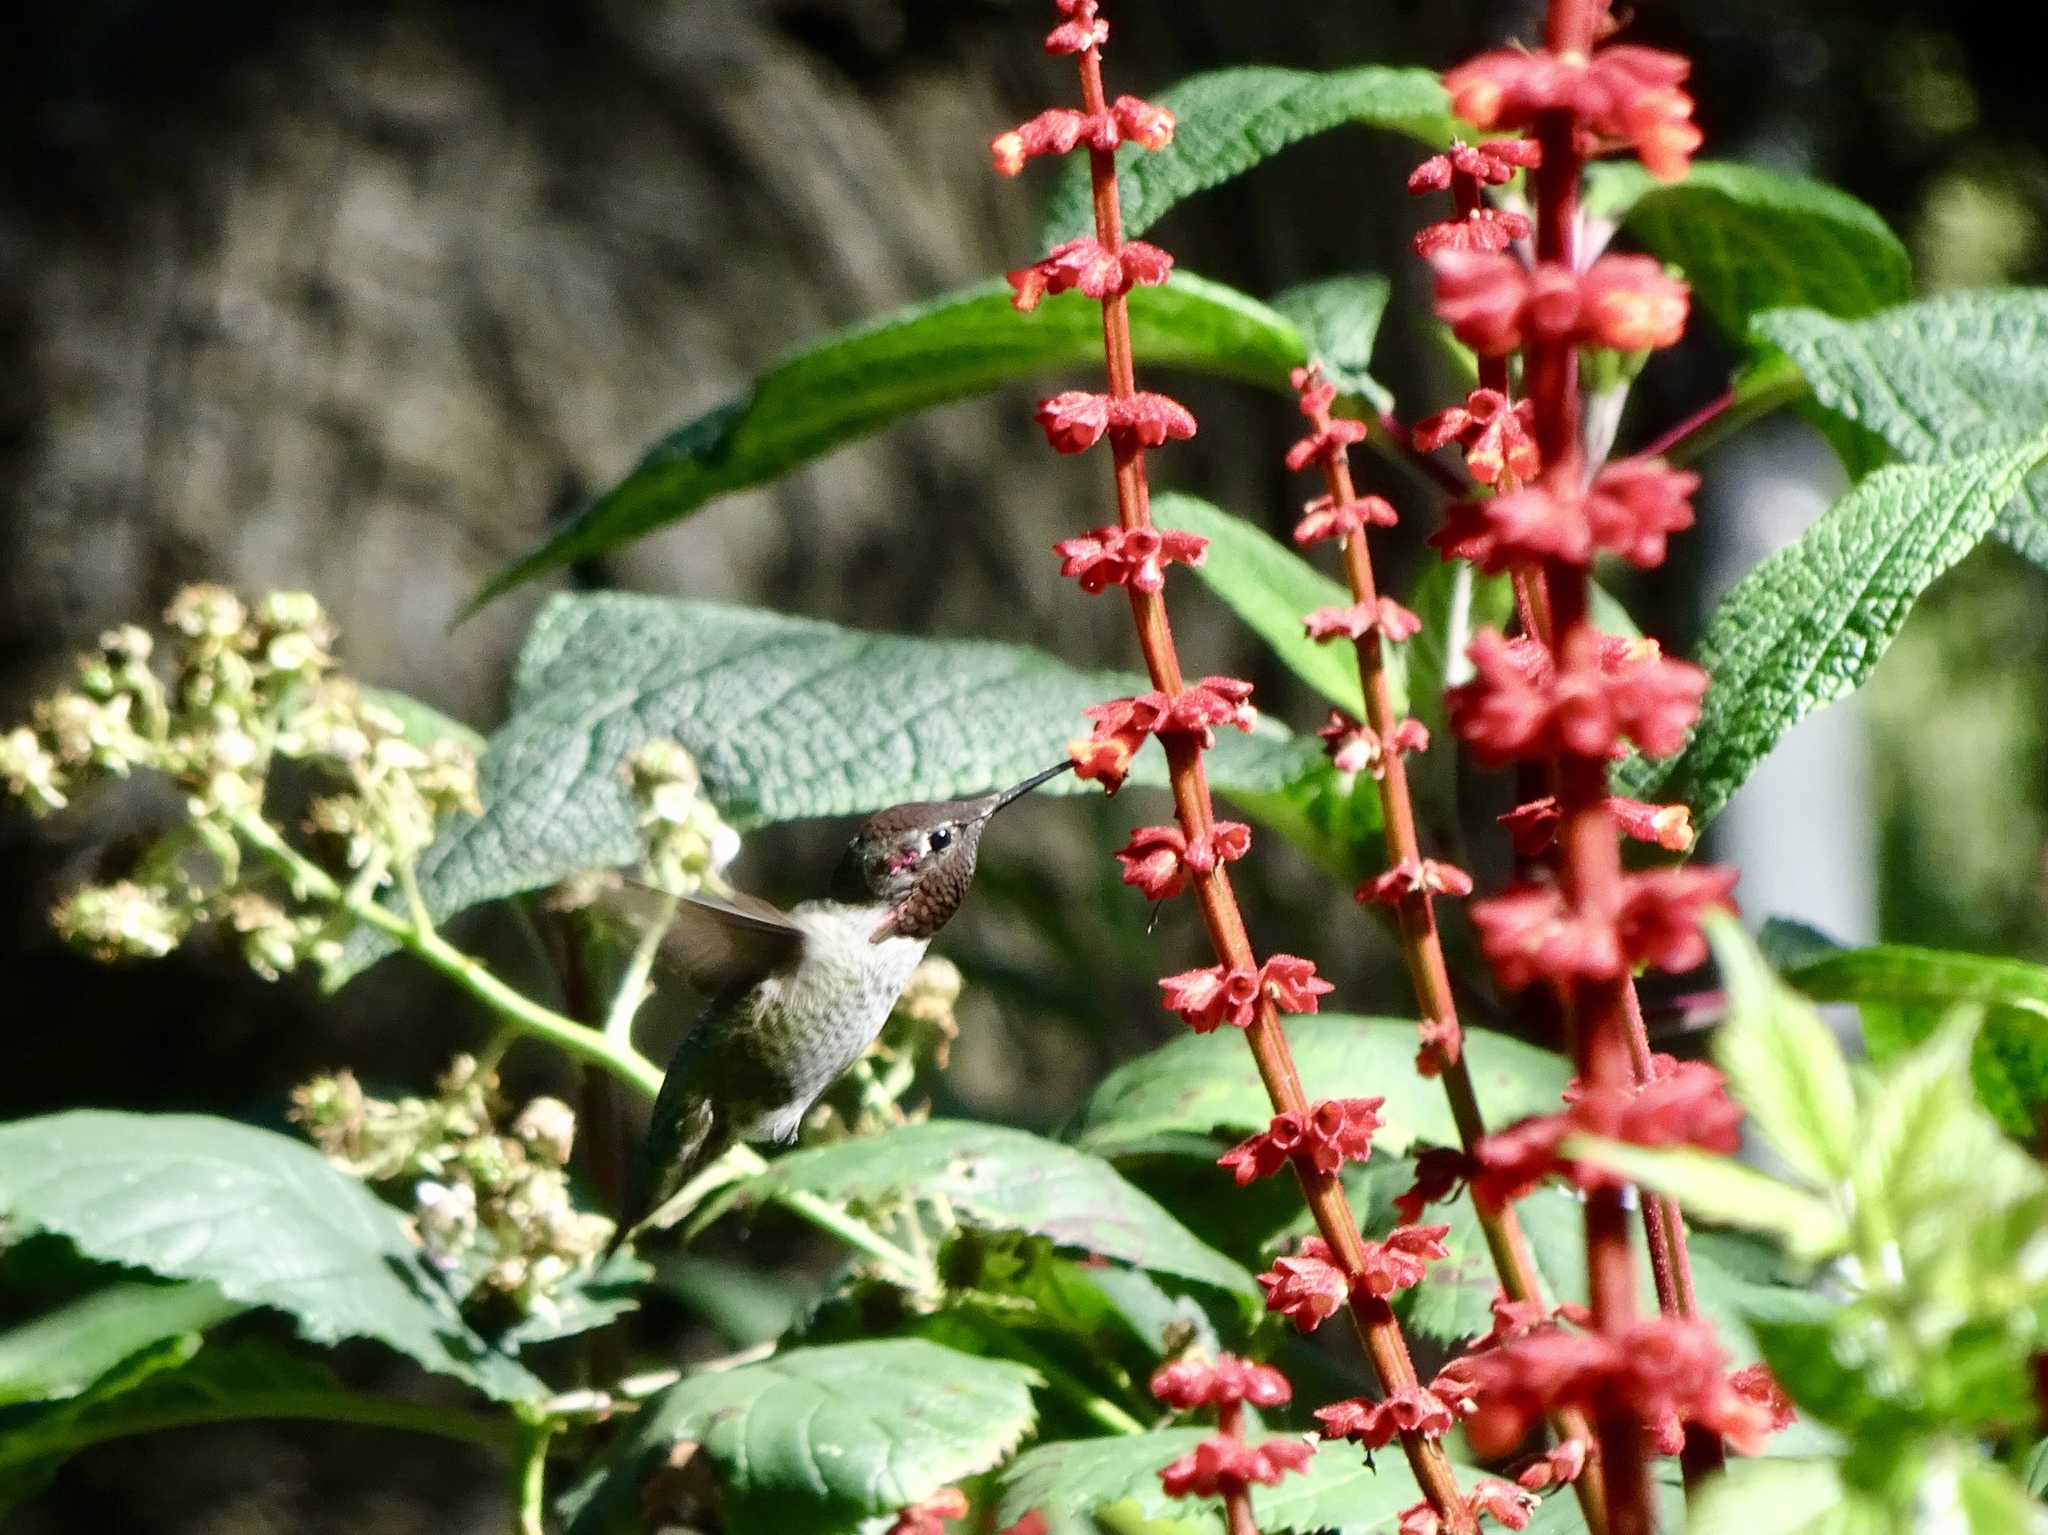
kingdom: Animalia
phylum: Chordata
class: Aves
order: Apodiformes
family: Trochilidae
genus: Calypte
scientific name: Calypte anna
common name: Anna's hummingbird
